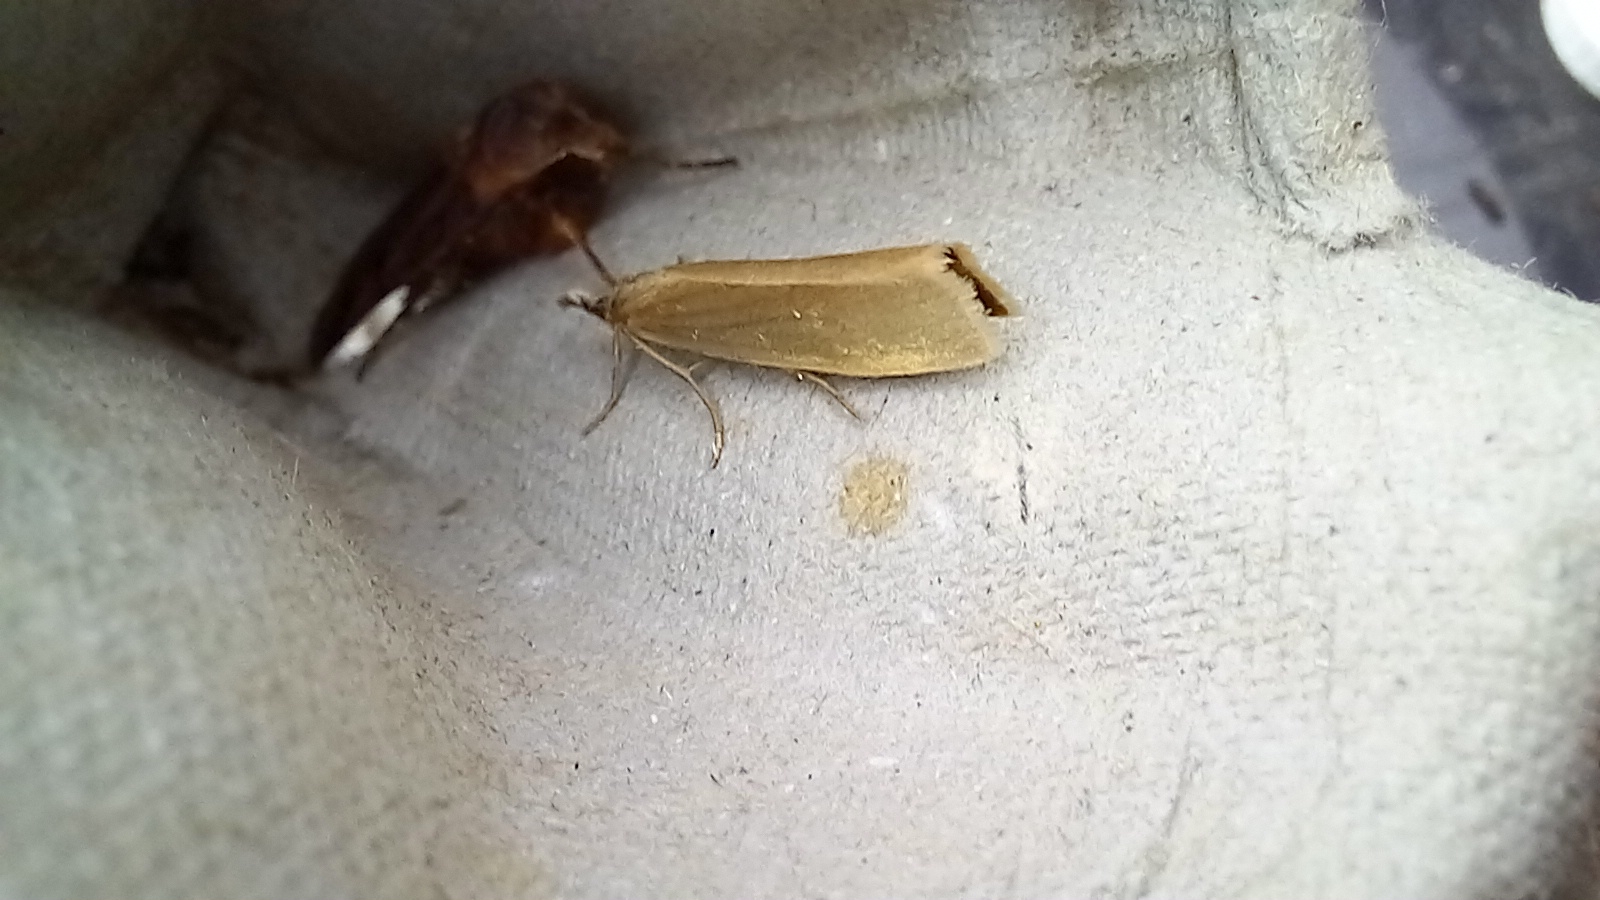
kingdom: Animalia
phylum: Arthropoda
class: Insecta
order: Lepidoptera
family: Crambidae
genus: Crambus
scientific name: Crambus perlellus
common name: Yellow satin veneer
